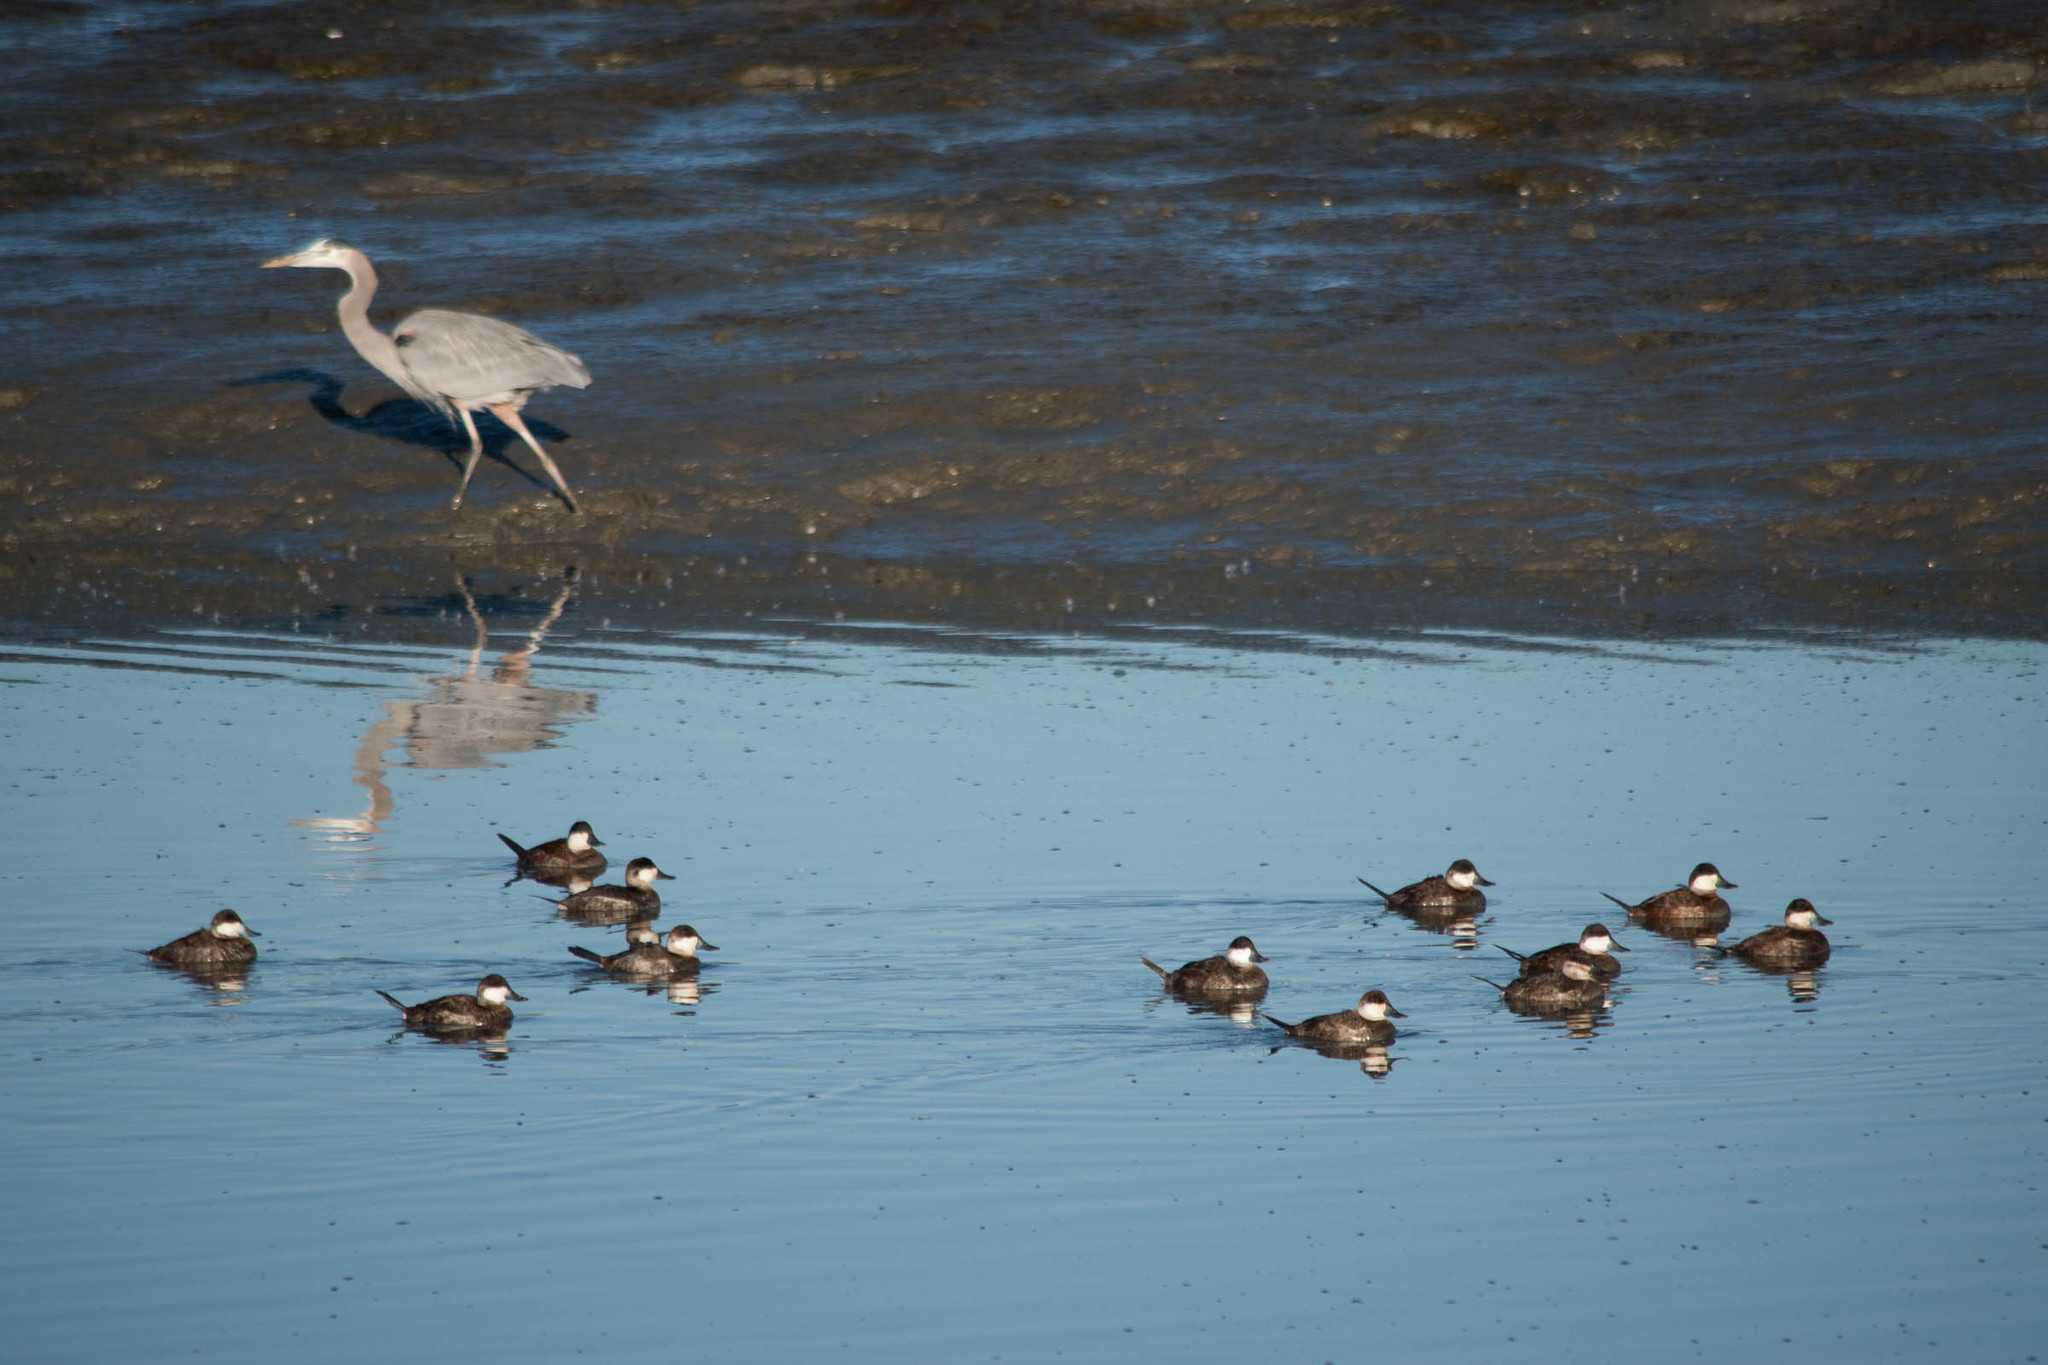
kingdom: Animalia
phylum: Chordata
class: Aves
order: Anseriformes
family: Anatidae
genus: Oxyura
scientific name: Oxyura jamaicensis
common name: Ruddy duck
